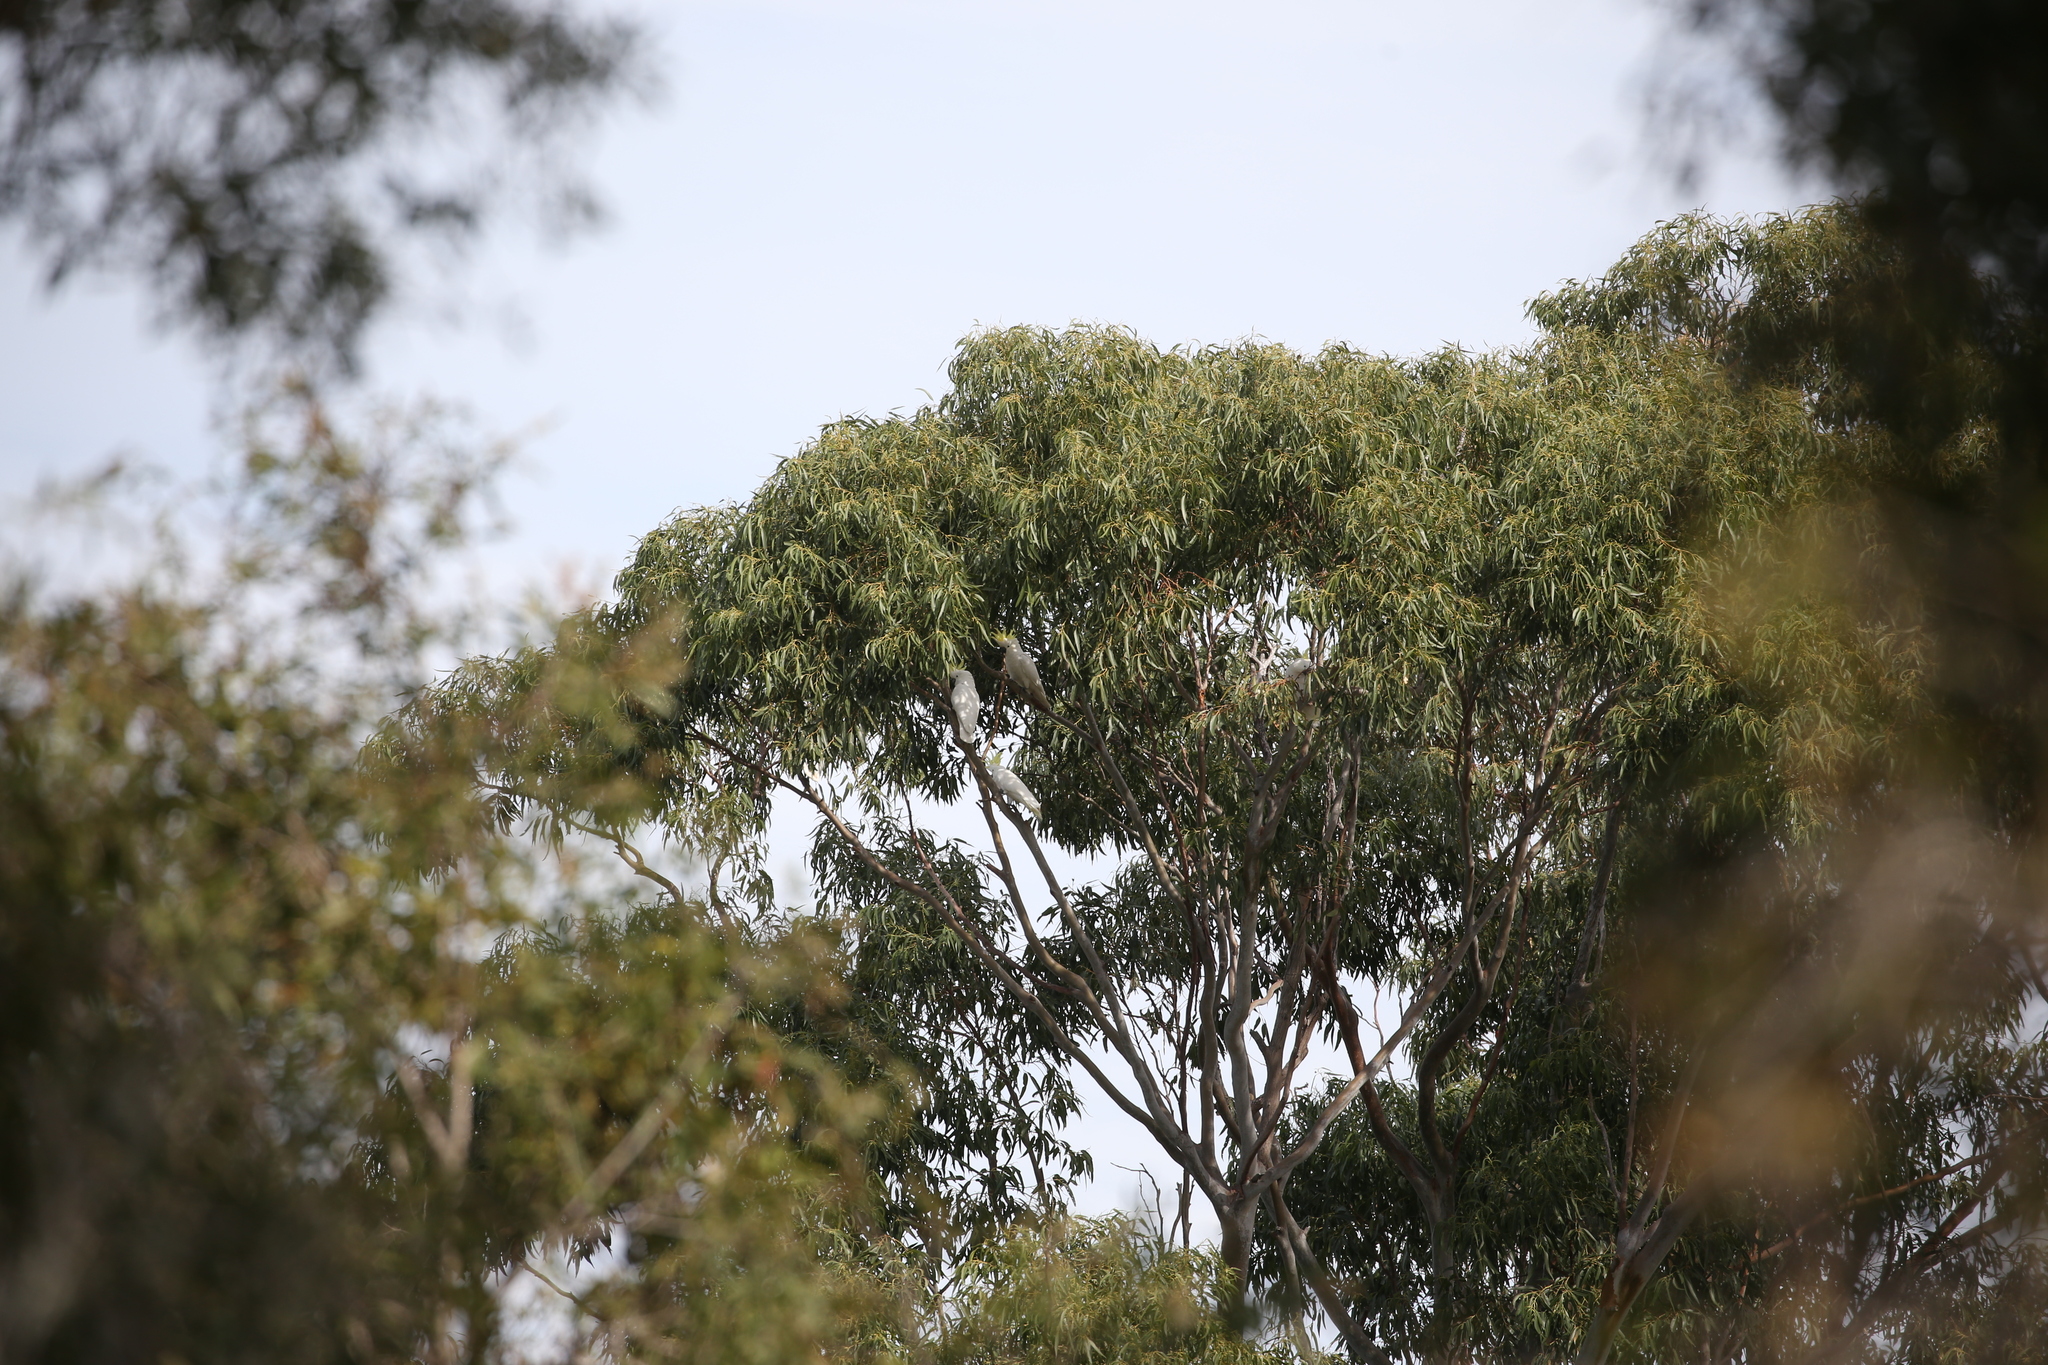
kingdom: Animalia
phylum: Chordata
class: Aves
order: Psittaciformes
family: Psittacidae
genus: Cacatua
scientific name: Cacatua galerita
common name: Sulphur-crested cockatoo
